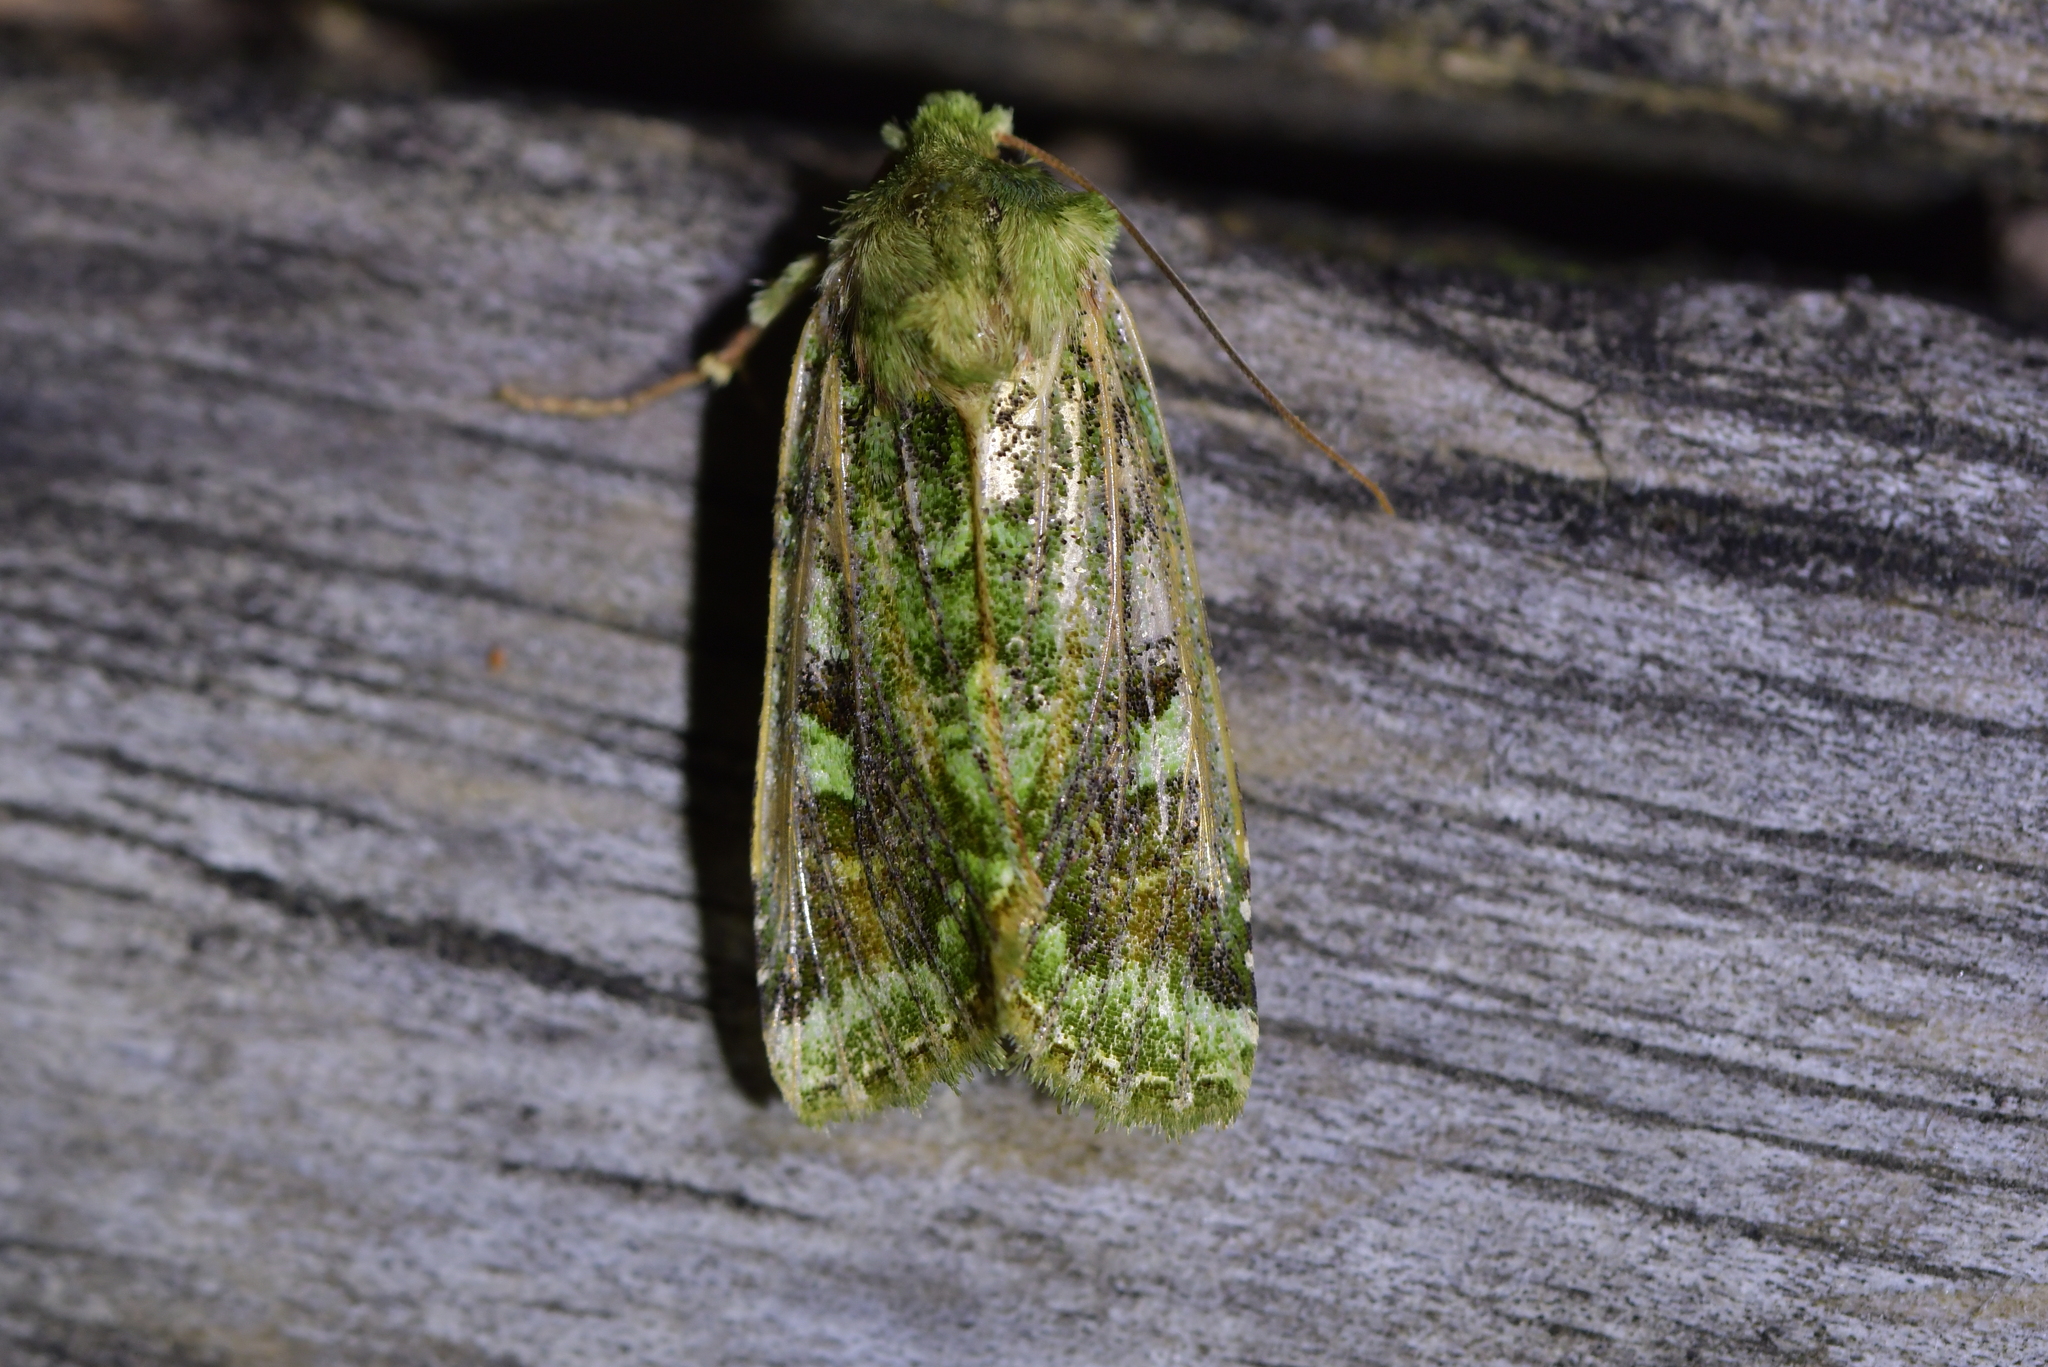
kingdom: Animalia
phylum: Arthropoda
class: Insecta
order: Lepidoptera
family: Noctuidae
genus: Feredayia
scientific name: Feredayia grammosa
